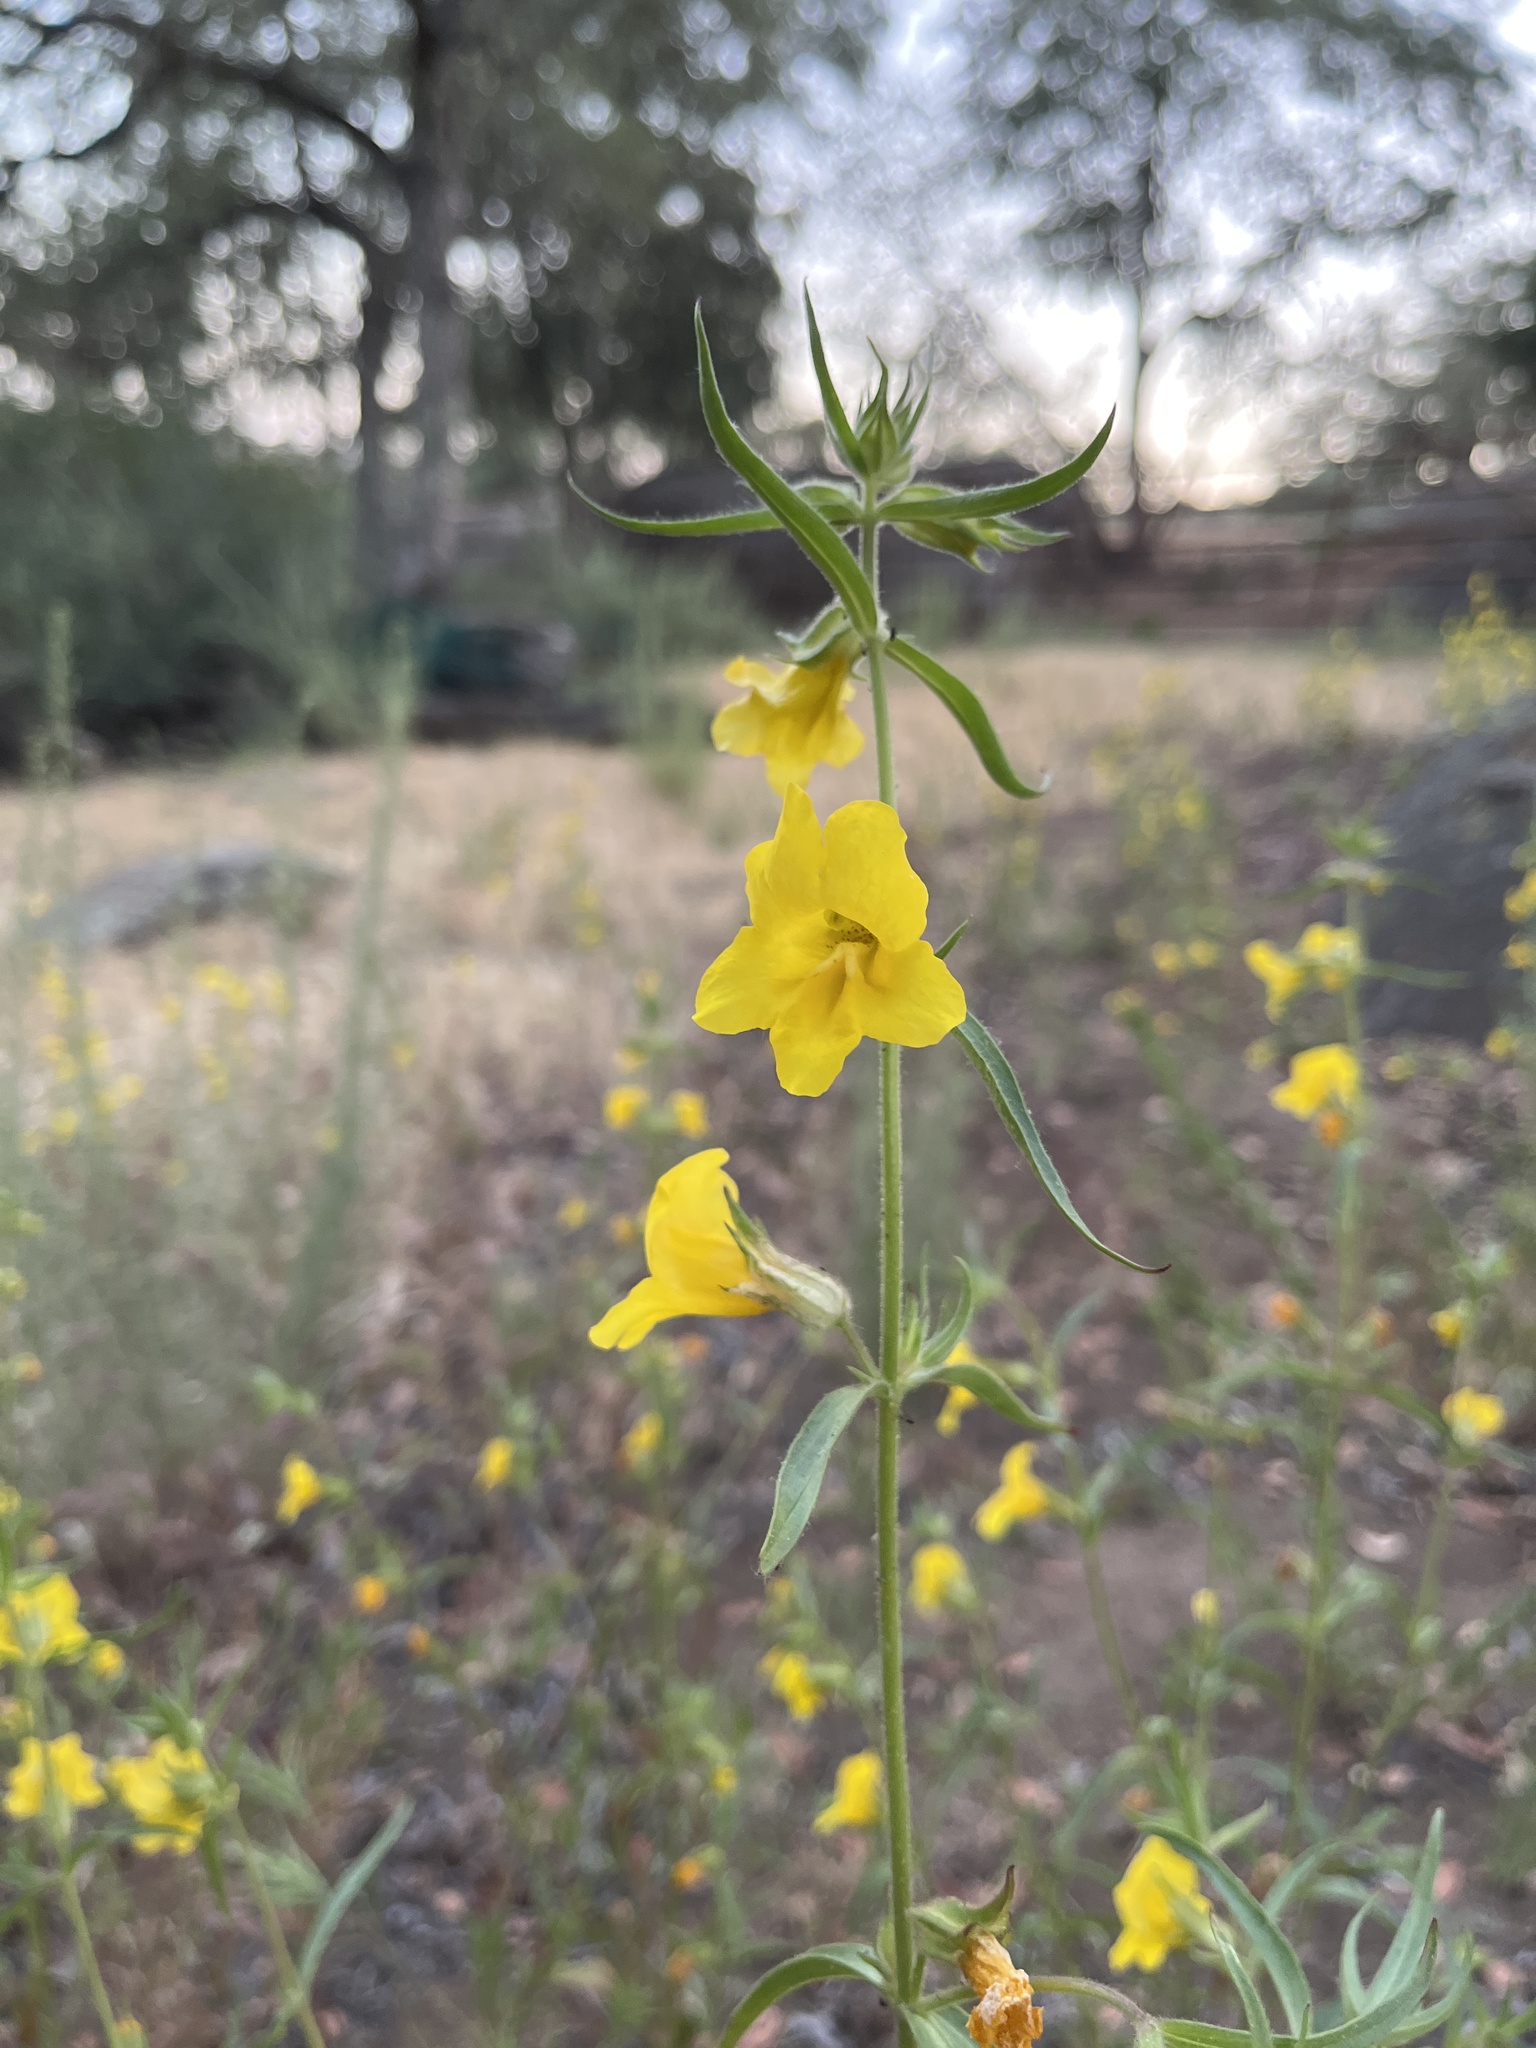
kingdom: Plantae
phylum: Tracheophyta
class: Magnoliopsida
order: Lamiales
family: Phrymaceae
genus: Diplacus
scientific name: Diplacus brevipes
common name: Wide-throat yellow monkey-flower
